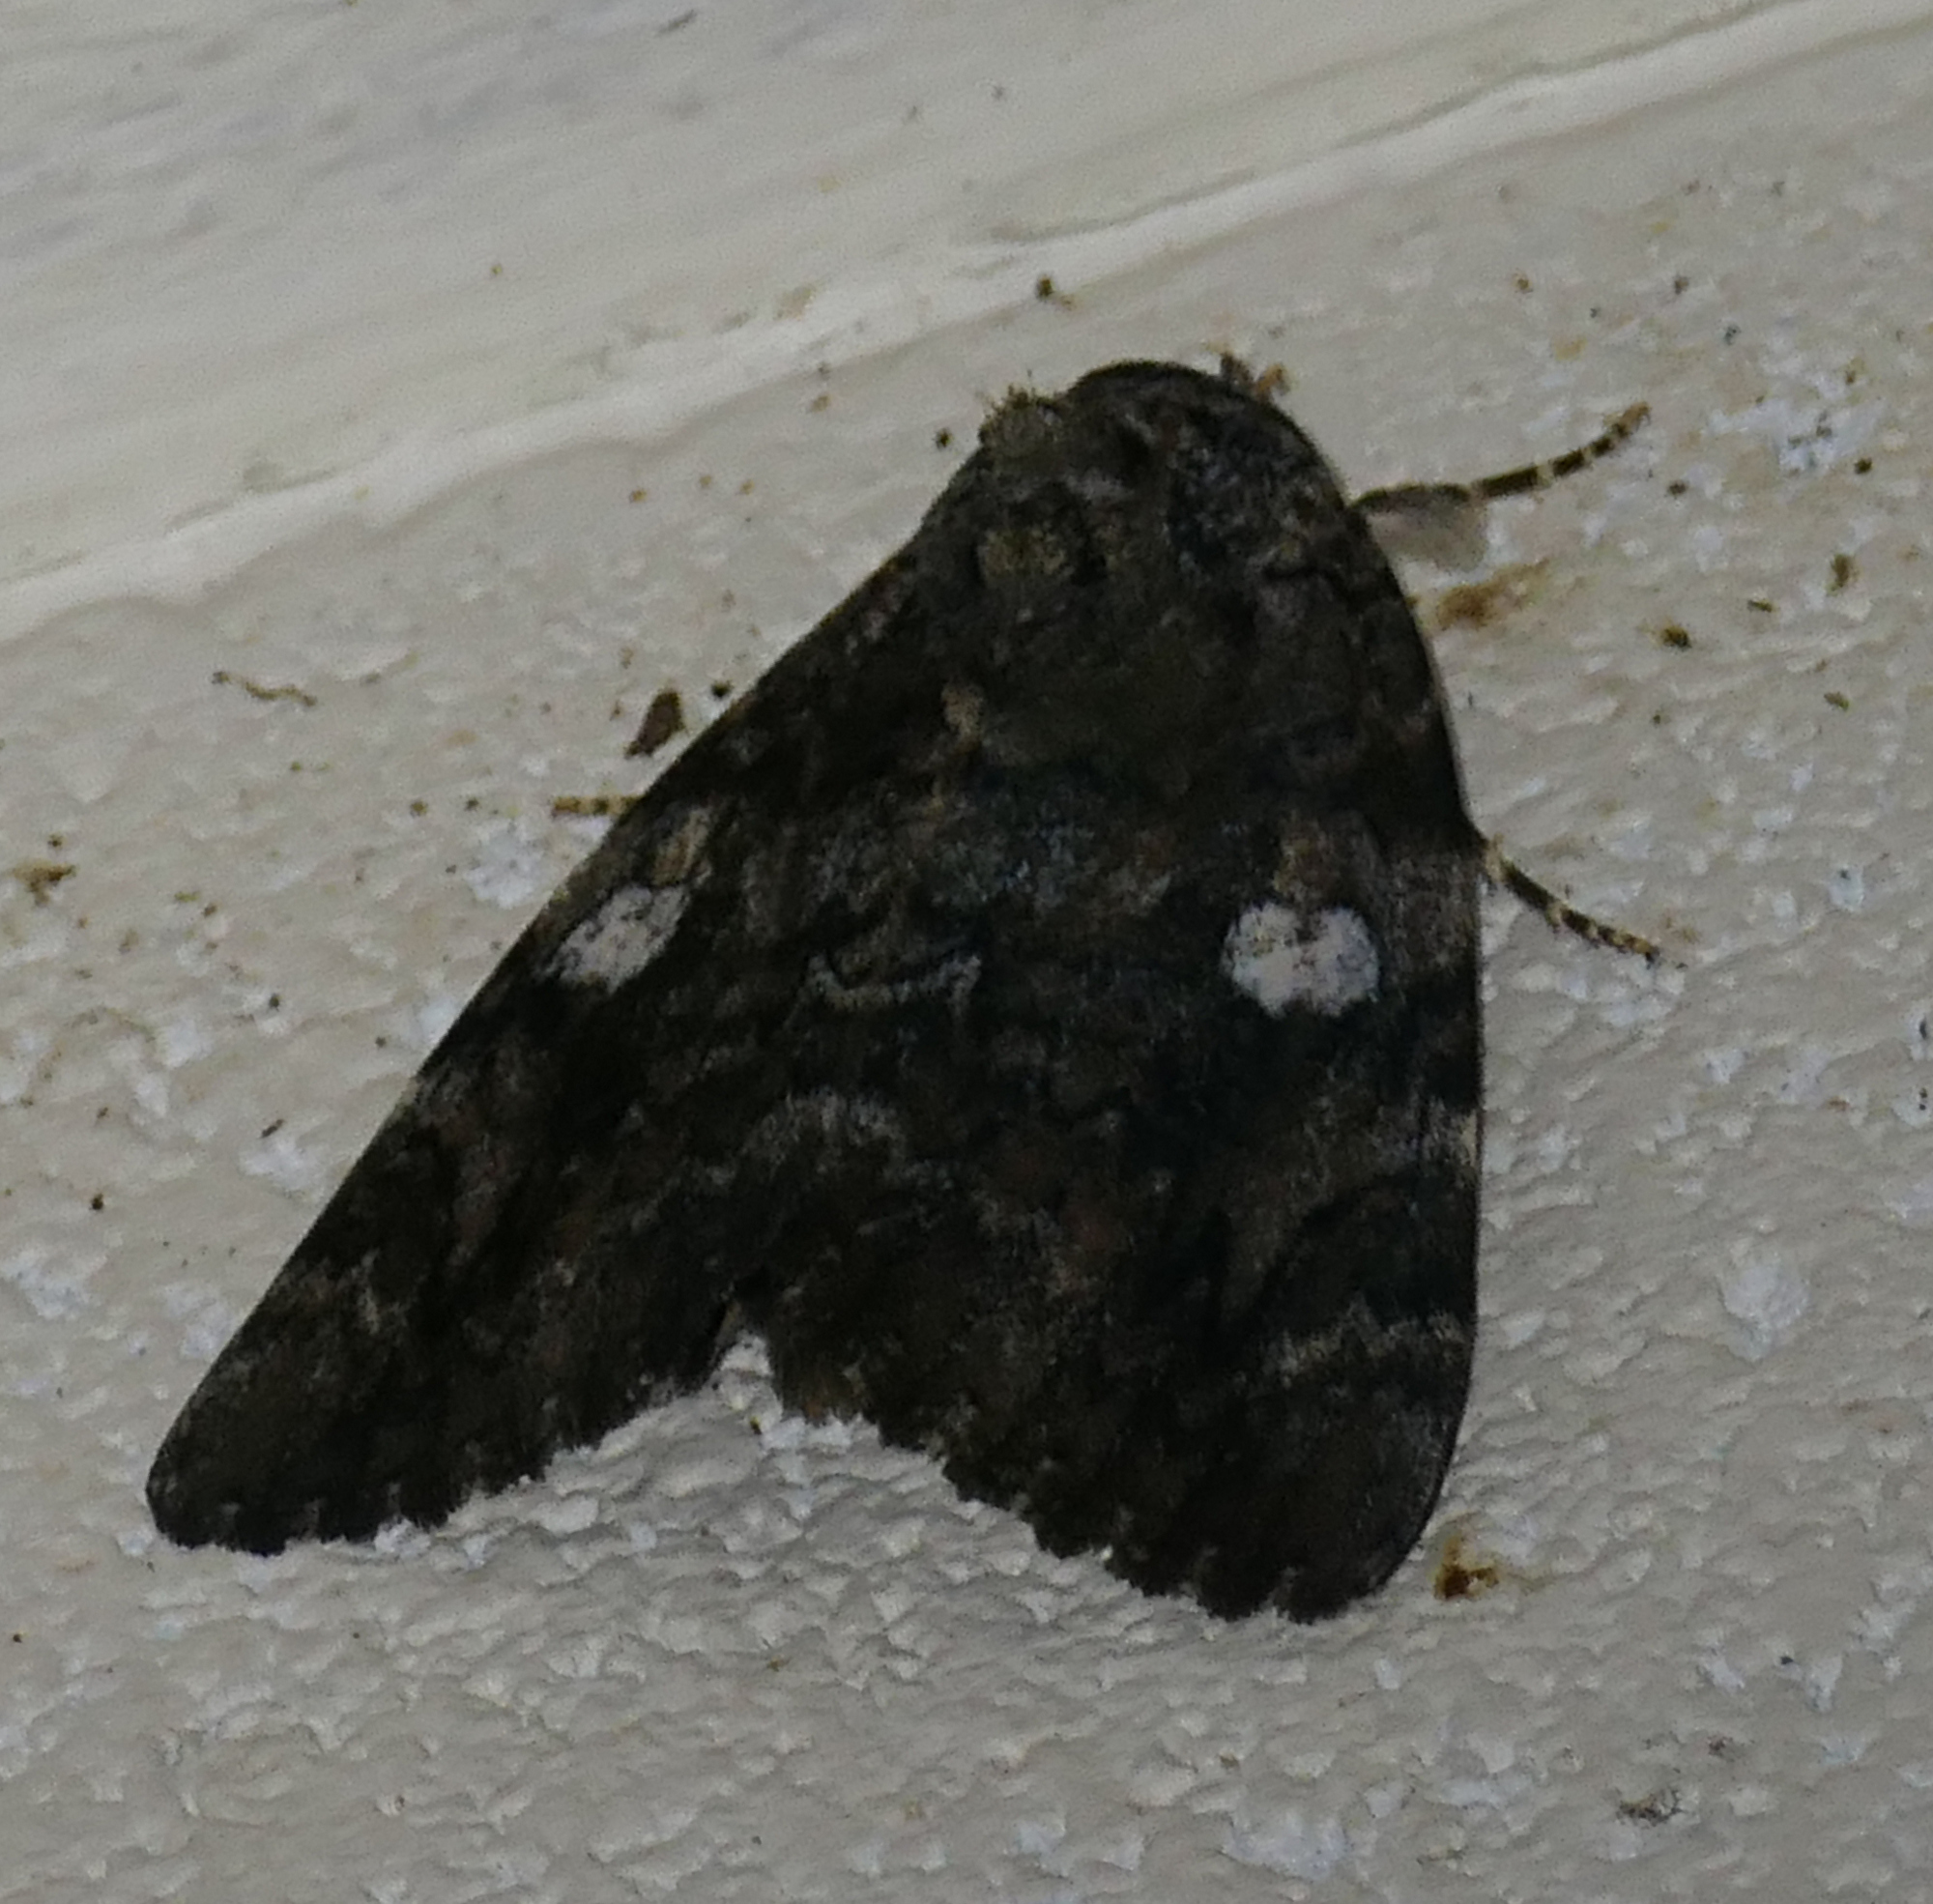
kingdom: Animalia
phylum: Arthropoda
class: Insecta
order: Lepidoptera
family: Erebidae
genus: Catocala
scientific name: Catocala ilia
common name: Ilia underwing
